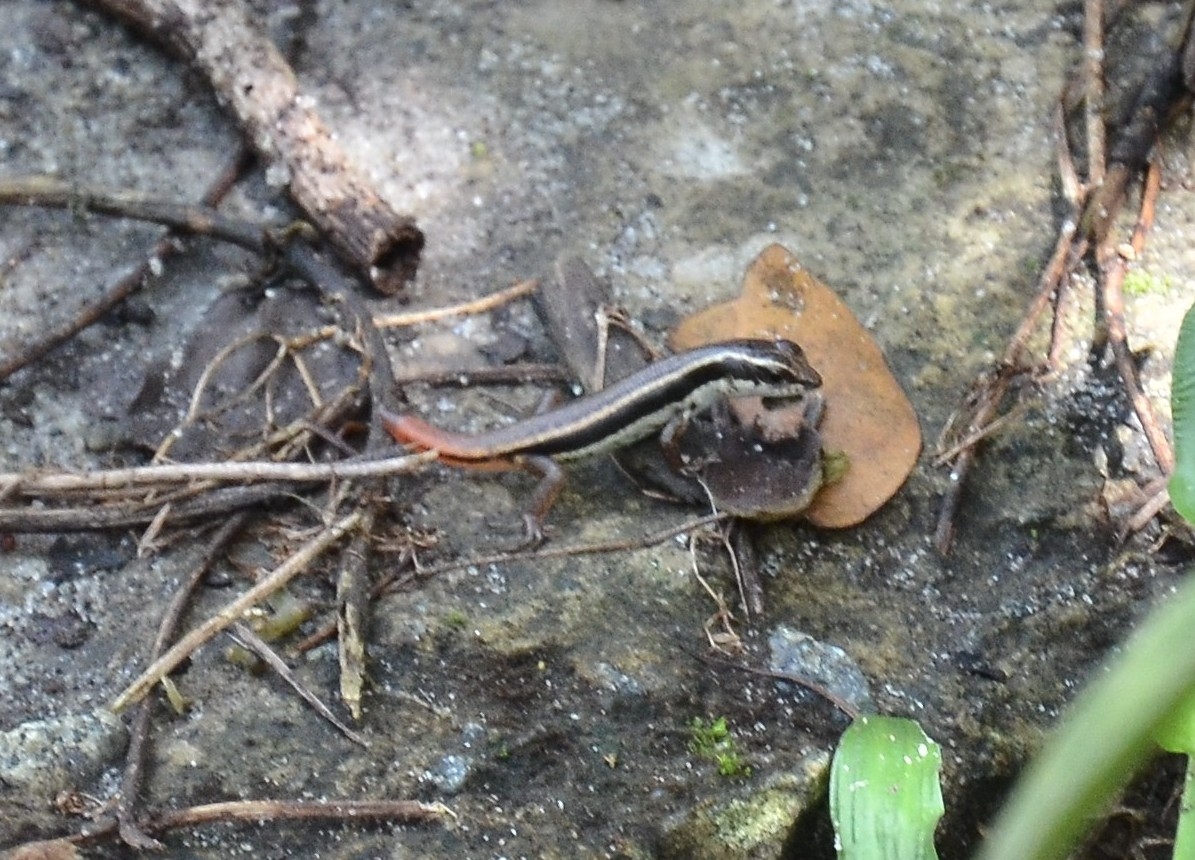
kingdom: Animalia
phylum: Chordata
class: Squamata
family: Scincidae
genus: Sphenomorphus
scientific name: Sphenomorphus dussumieri
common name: Dussumier's forest skink
